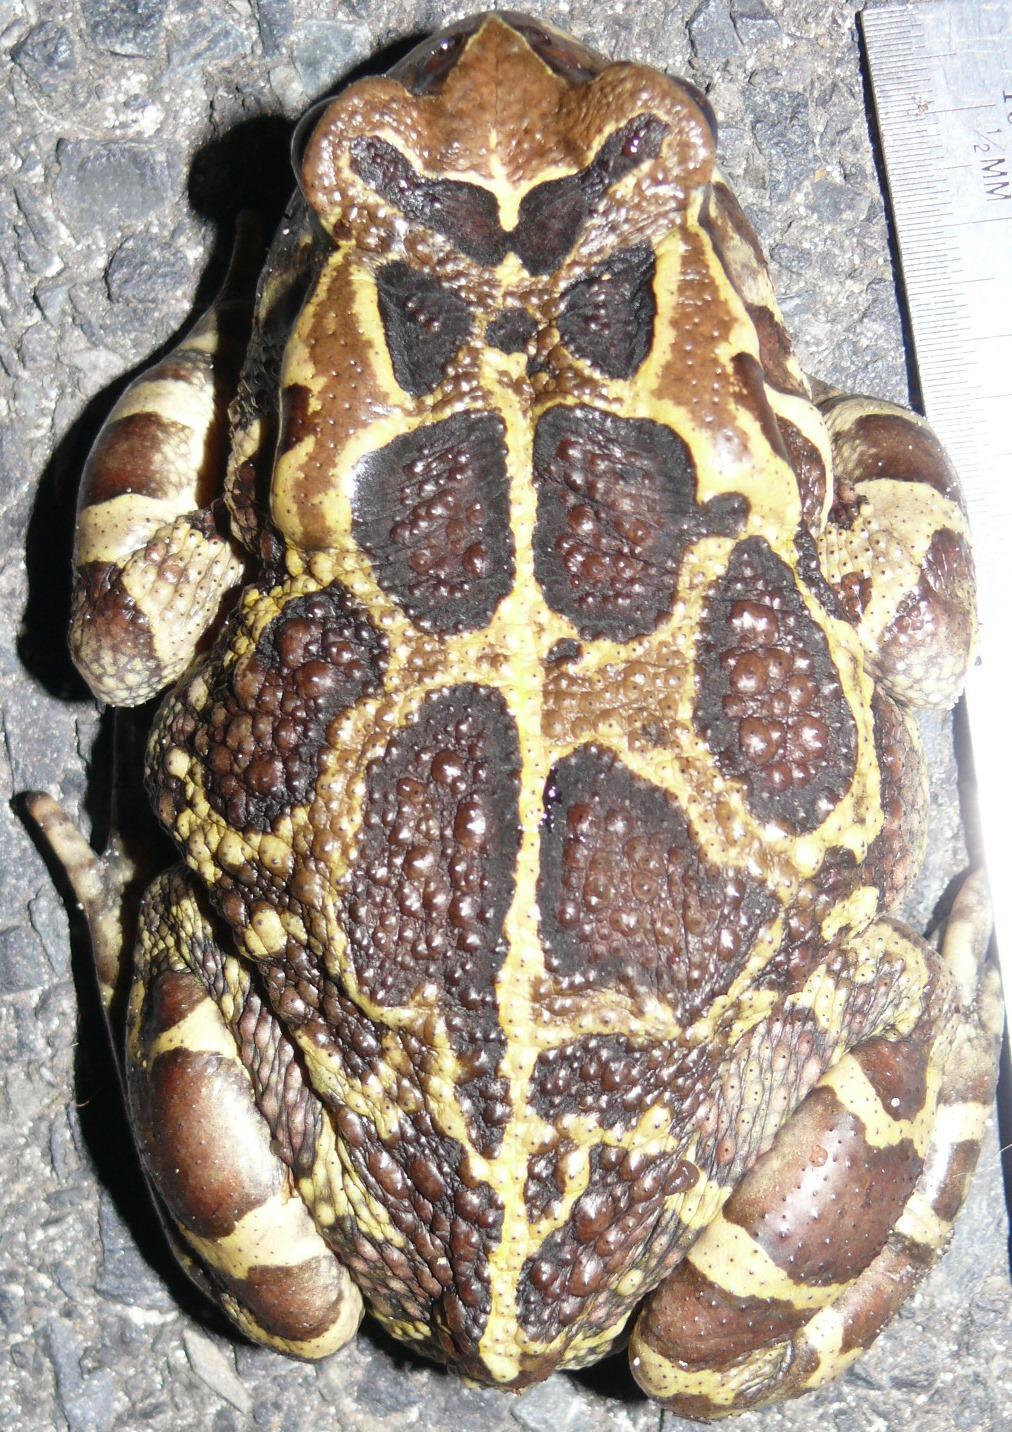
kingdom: Animalia
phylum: Chordata
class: Amphibia
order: Anura
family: Bufonidae
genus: Sclerophrys
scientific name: Sclerophrys pantherina
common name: Panther toad
